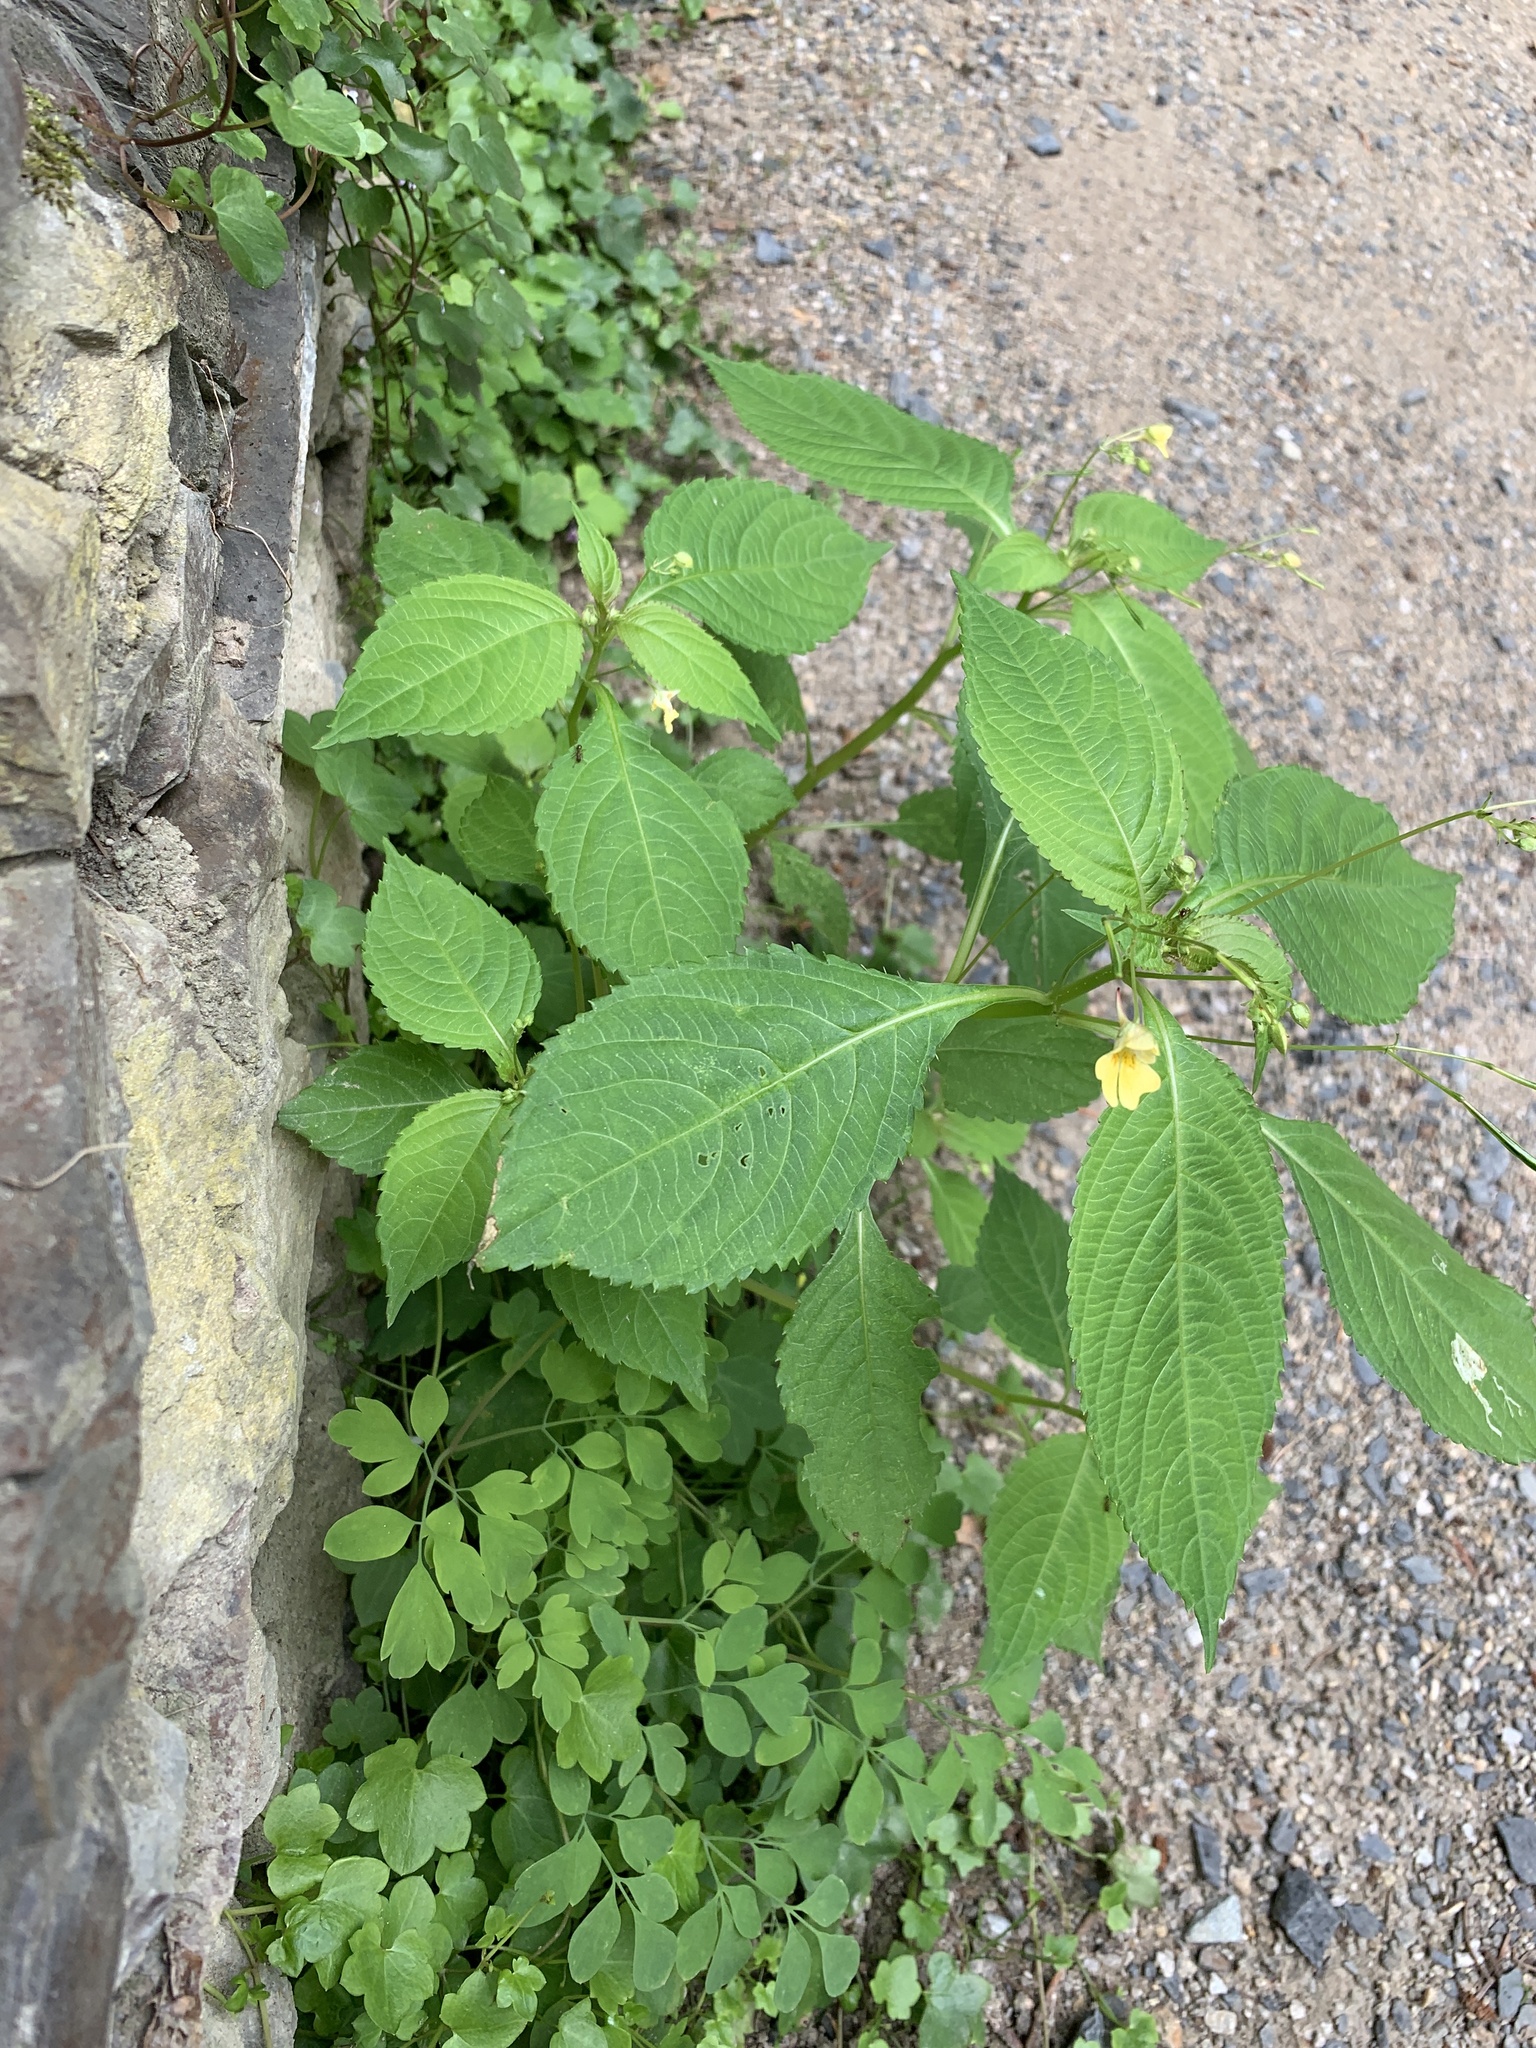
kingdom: Plantae
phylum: Tracheophyta
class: Magnoliopsida
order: Ericales
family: Balsaminaceae
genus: Impatiens
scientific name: Impatiens parviflora
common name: Small balsam
